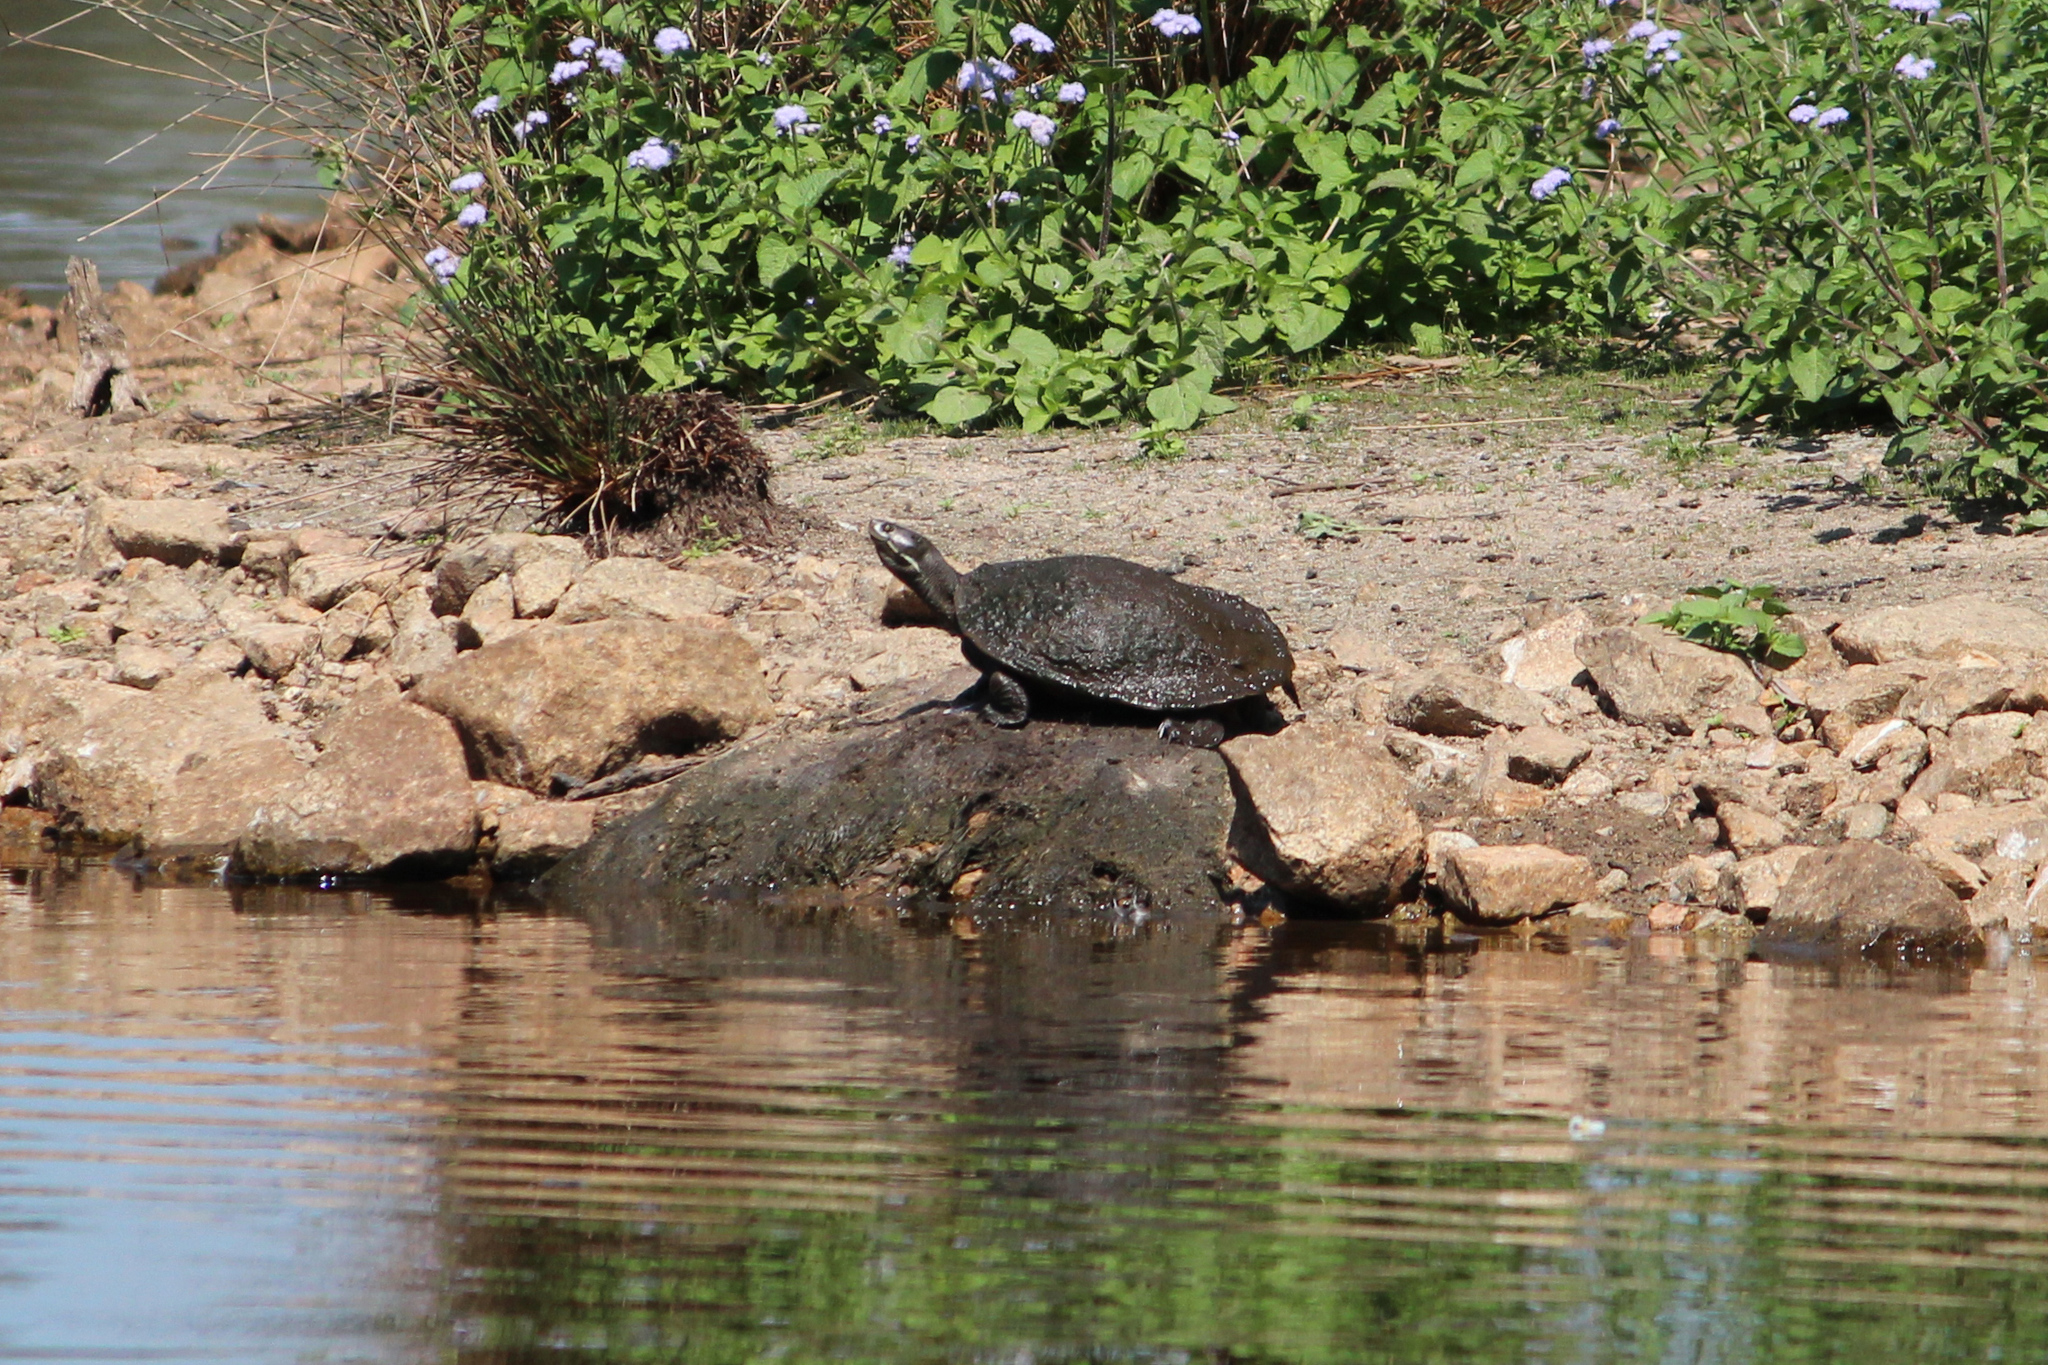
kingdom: Animalia
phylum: Chordata
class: Testudines
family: Chelidae
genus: Emydura
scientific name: Emydura macquarii
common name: Murray river turtle
